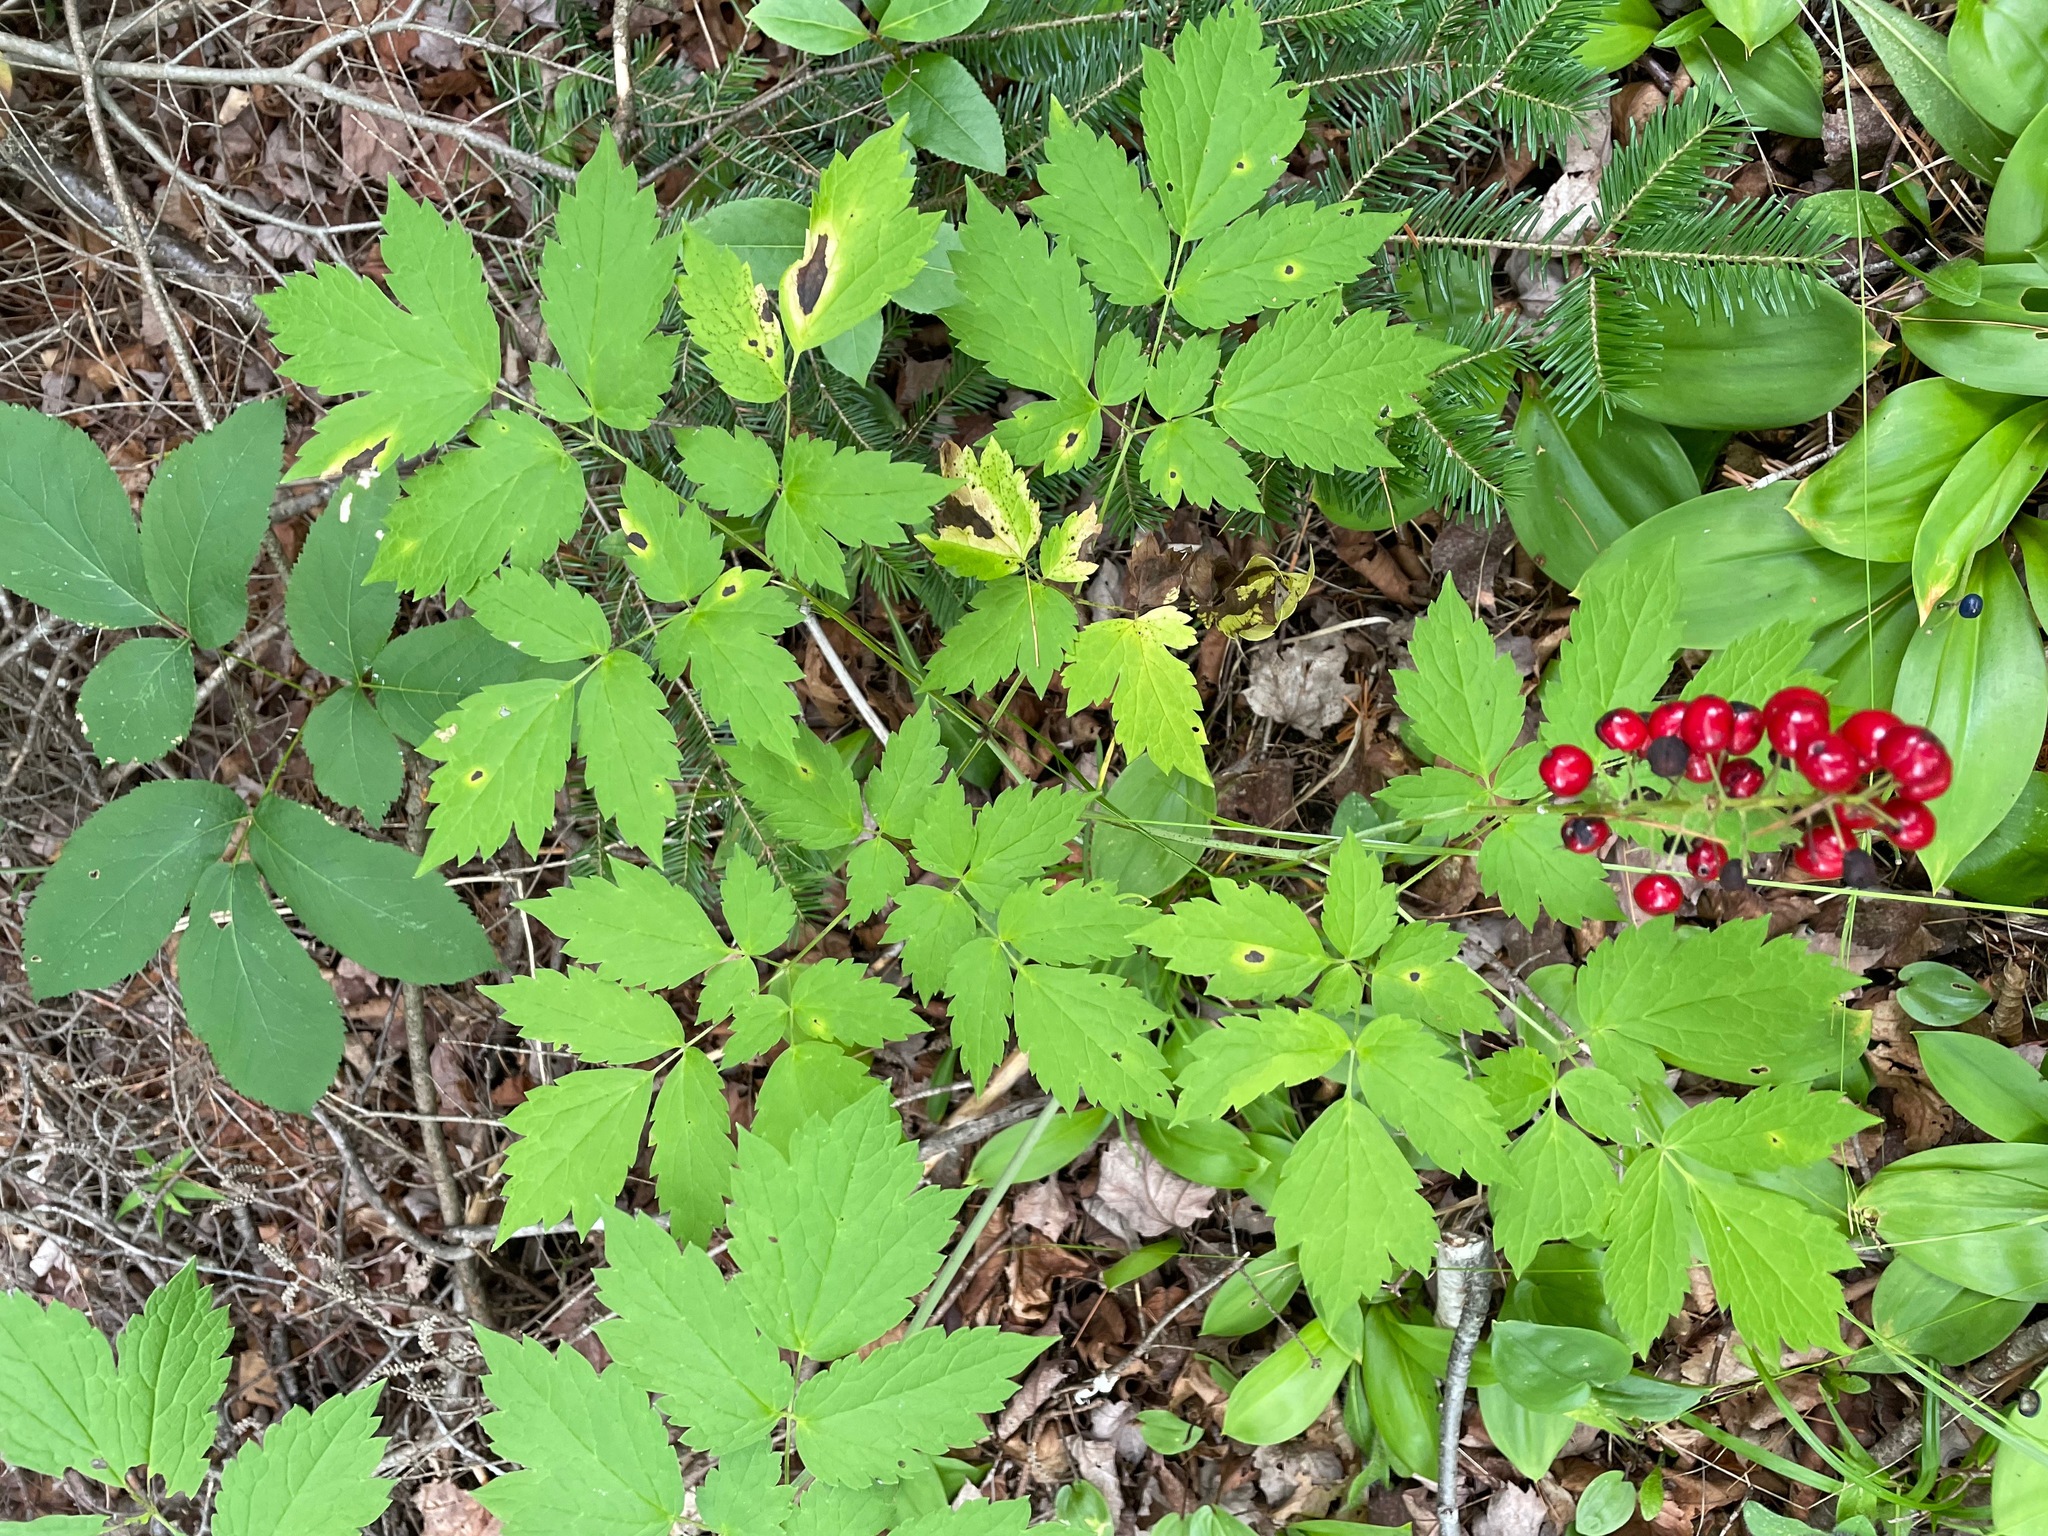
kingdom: Plantae
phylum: Tracheophyta
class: Magnoliopsida
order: Ranunculales
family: Ranunculaceae
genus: Actaea
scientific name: Actaea rubra
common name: Red baneberry
